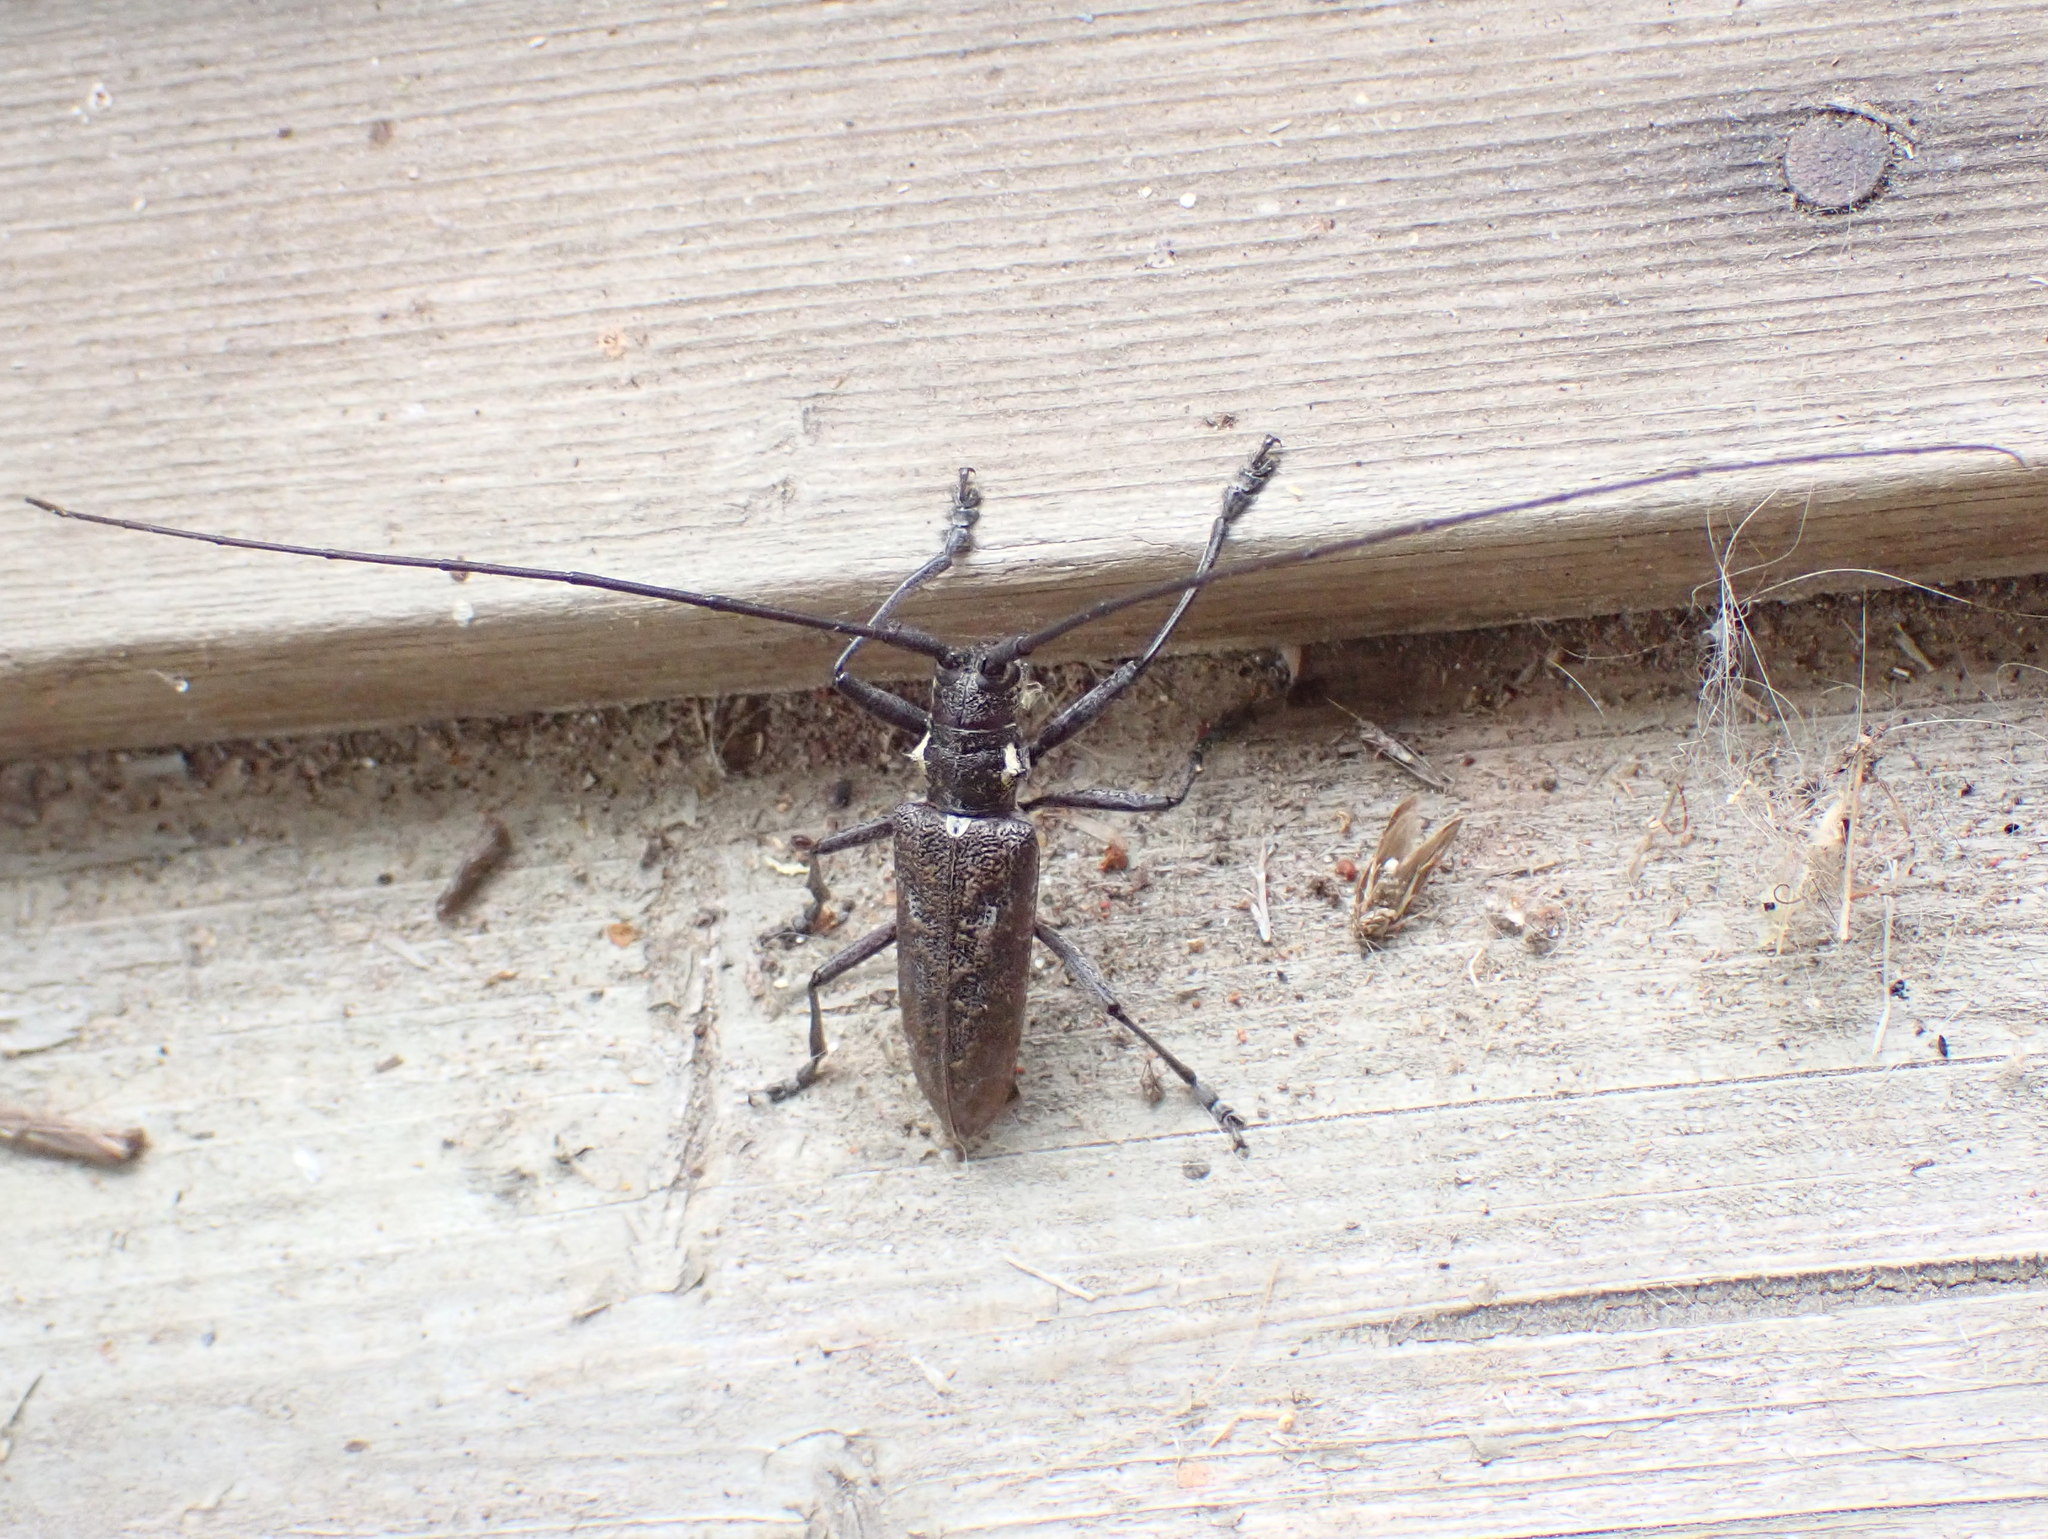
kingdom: Animalia
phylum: Arthropoda
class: Insecta
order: Coleoptera
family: Cerambycidae
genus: Monochamus
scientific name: Monochamus notatus
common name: Northeastern pine sawyer beetle
